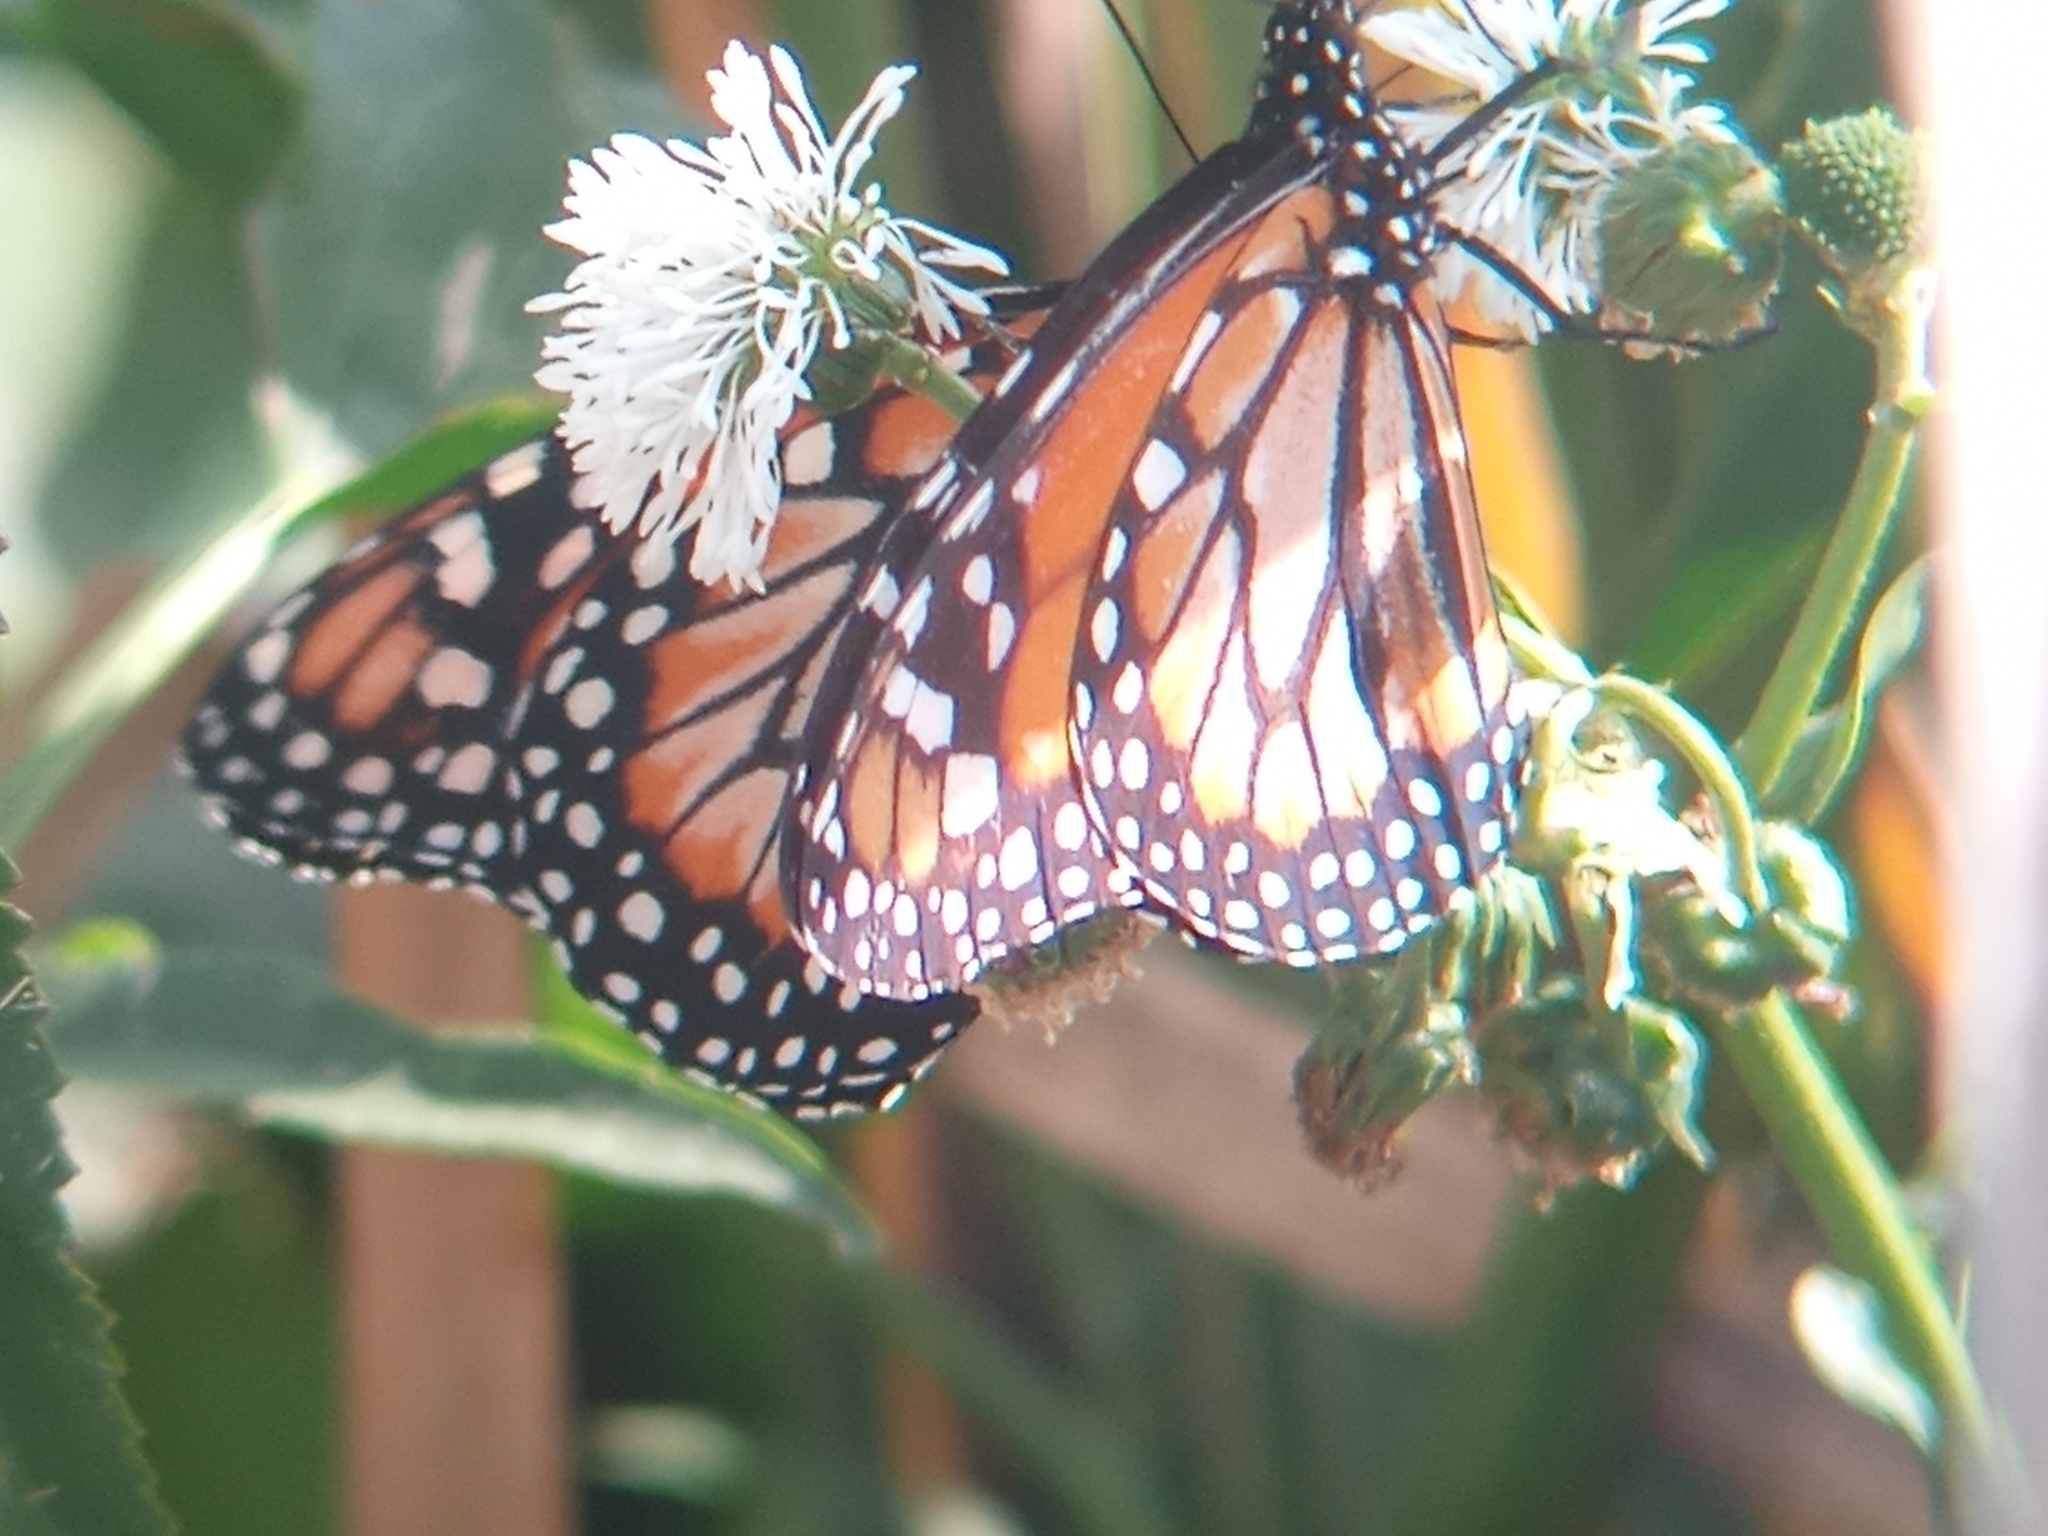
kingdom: Animalia
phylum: Arthropoda
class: Insecta
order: Lepidoptera
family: Nymphalidae
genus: Danaus
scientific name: Danaus erippus
